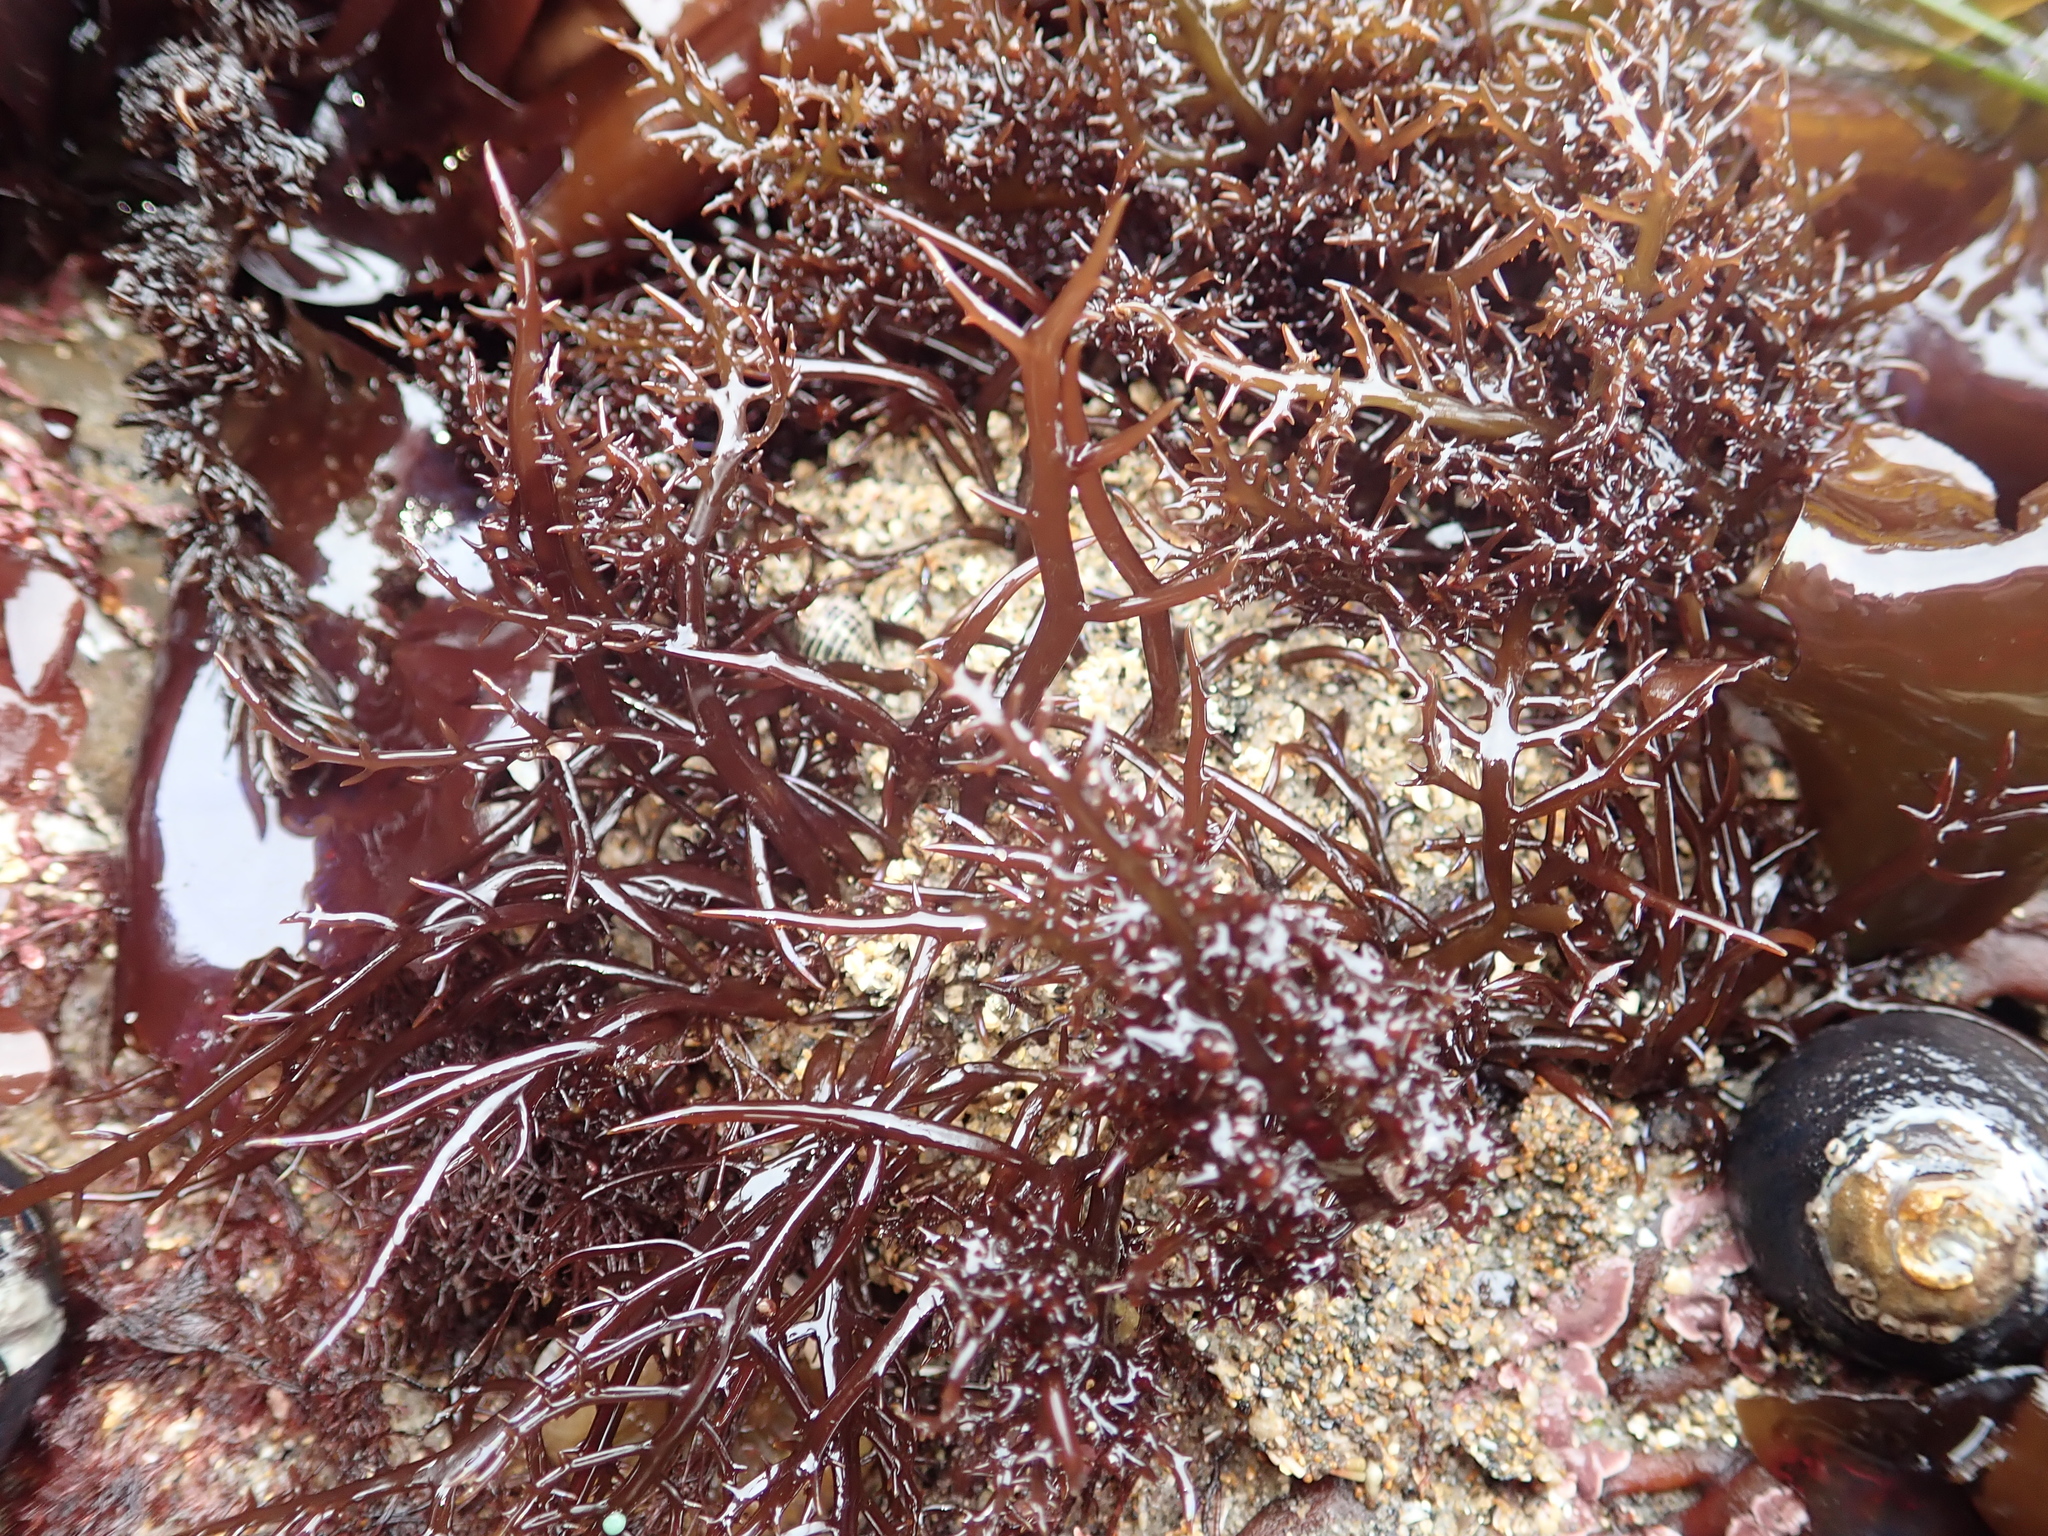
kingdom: Plantae
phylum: Rhodophyta
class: Florideophyceae
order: Gigartinales
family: Gigartinaceae
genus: Chondracanthus
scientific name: Chondracanthus canaliculatus
